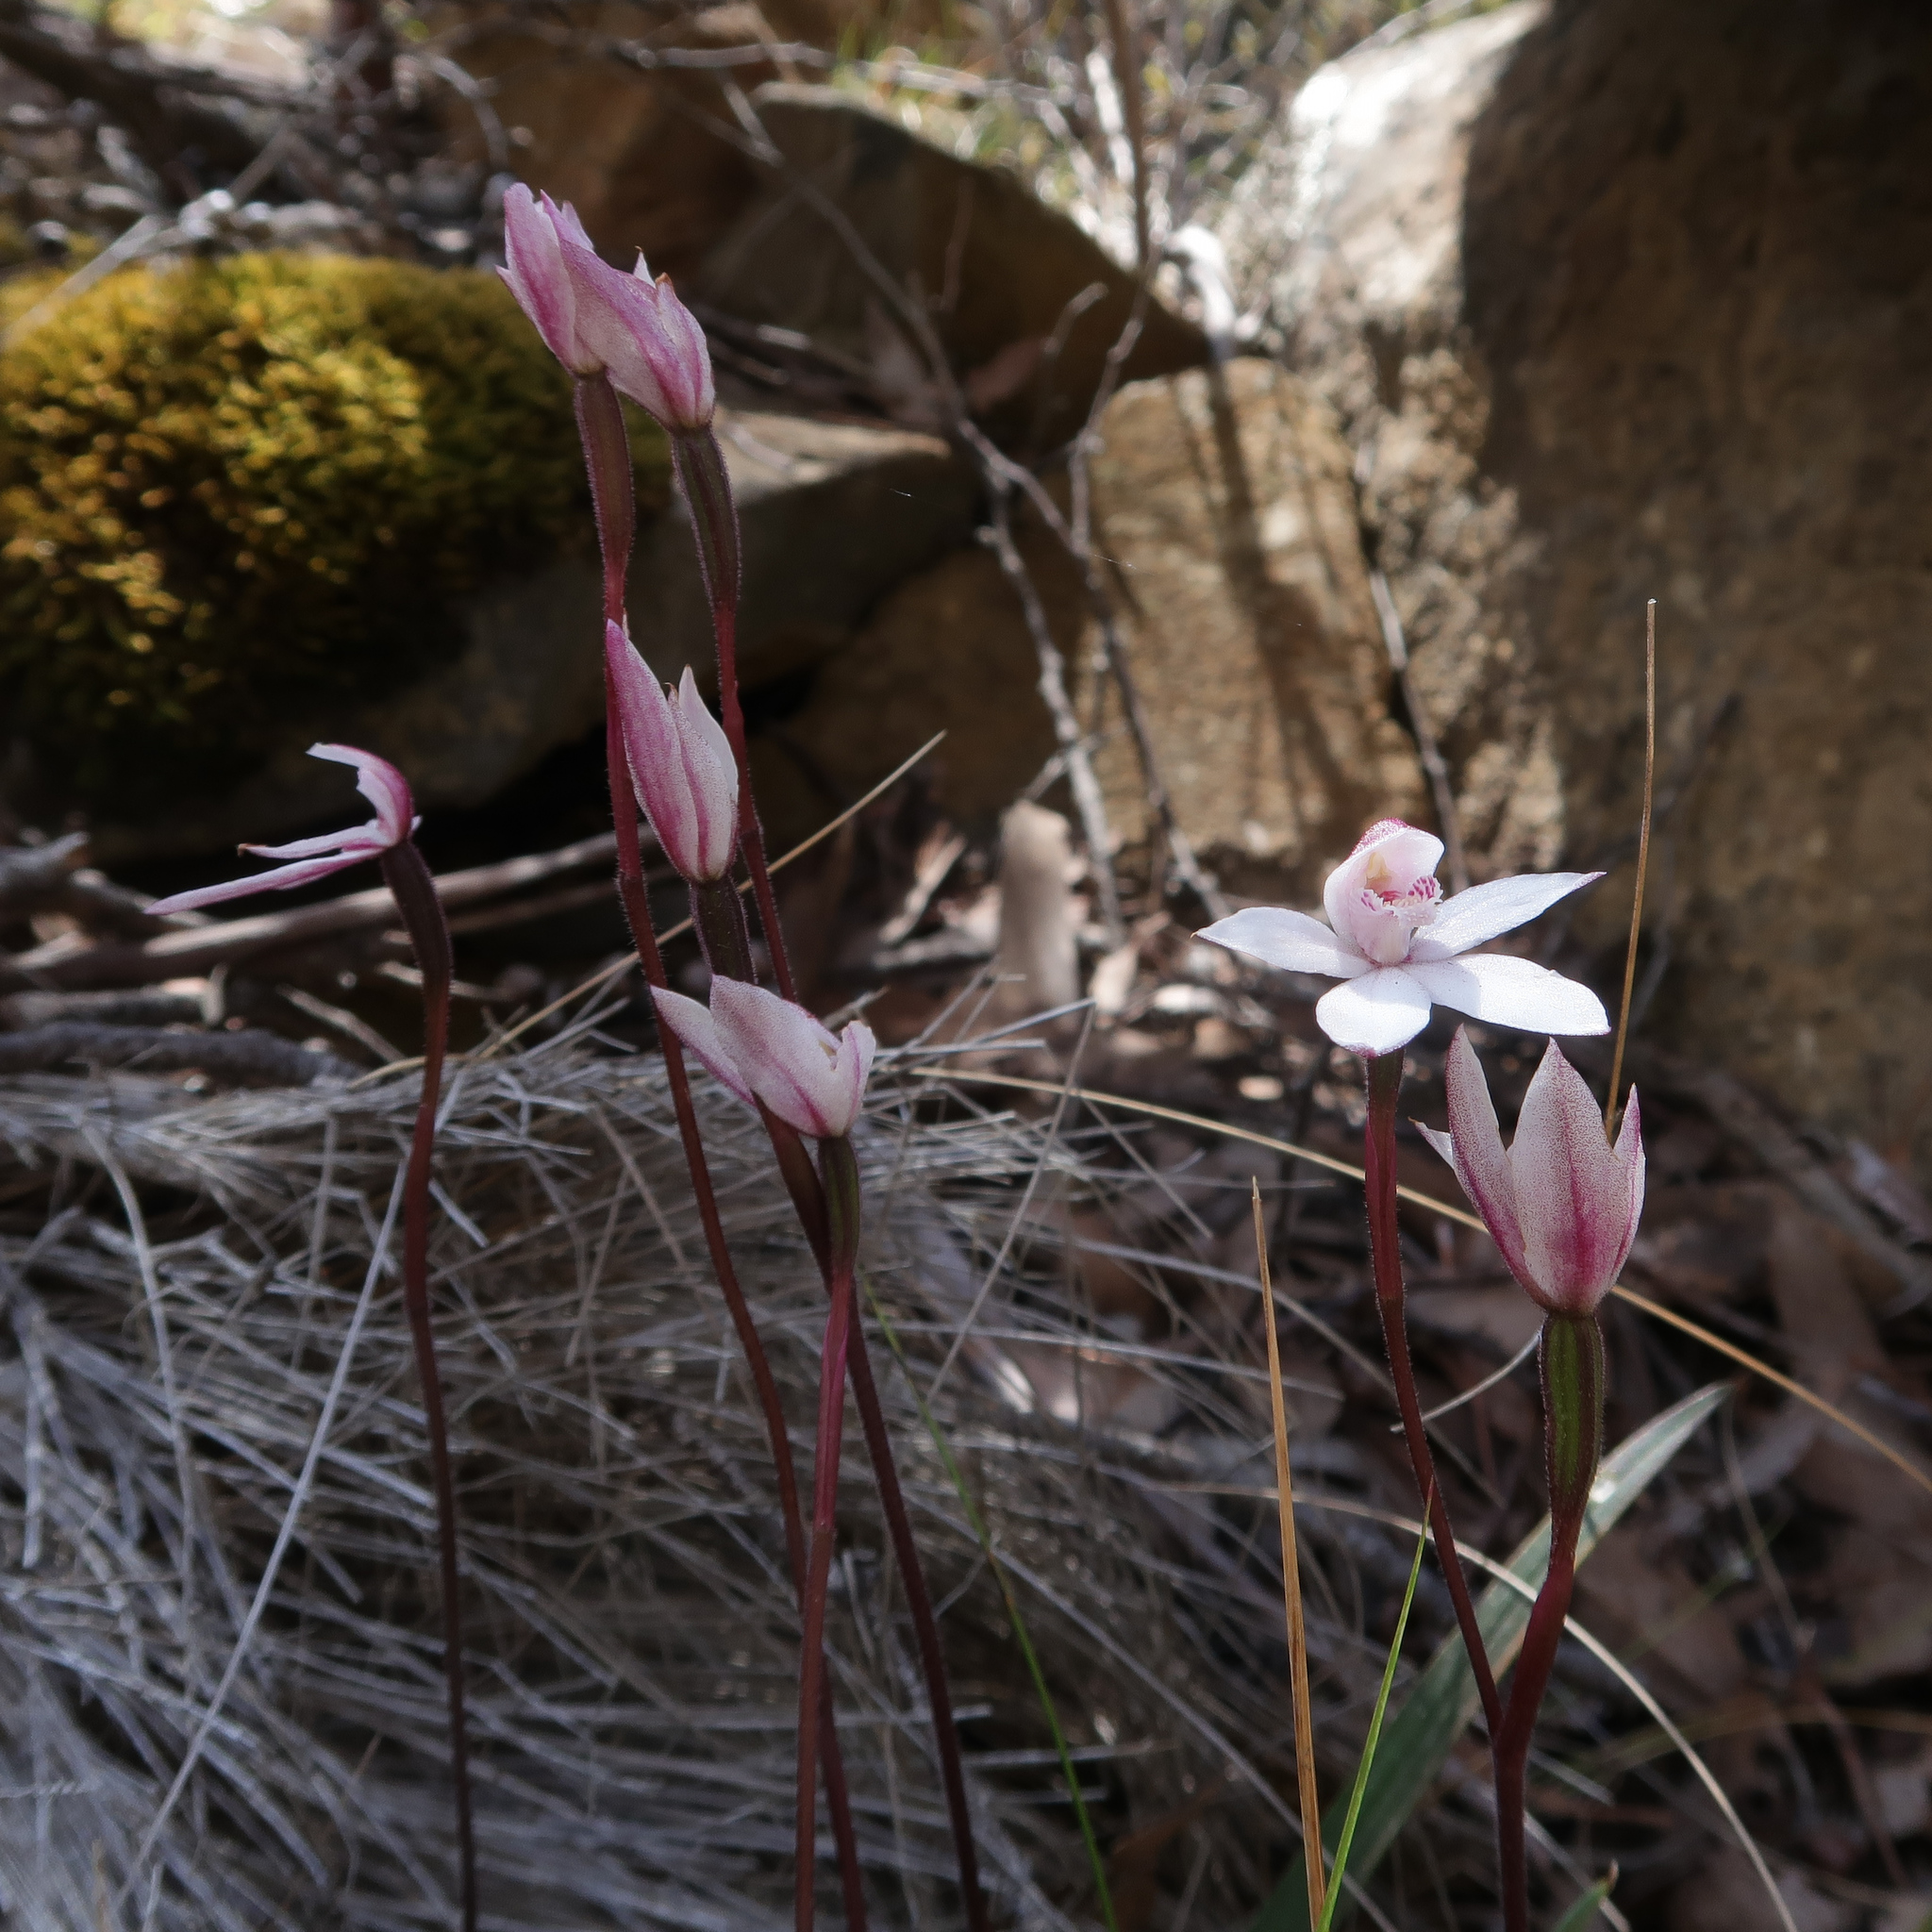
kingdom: Plantae
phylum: Tracheophyta
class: Liliopsida
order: Asparagales
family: Orchidaceae
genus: Caladenia
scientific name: Caladenia alpina
